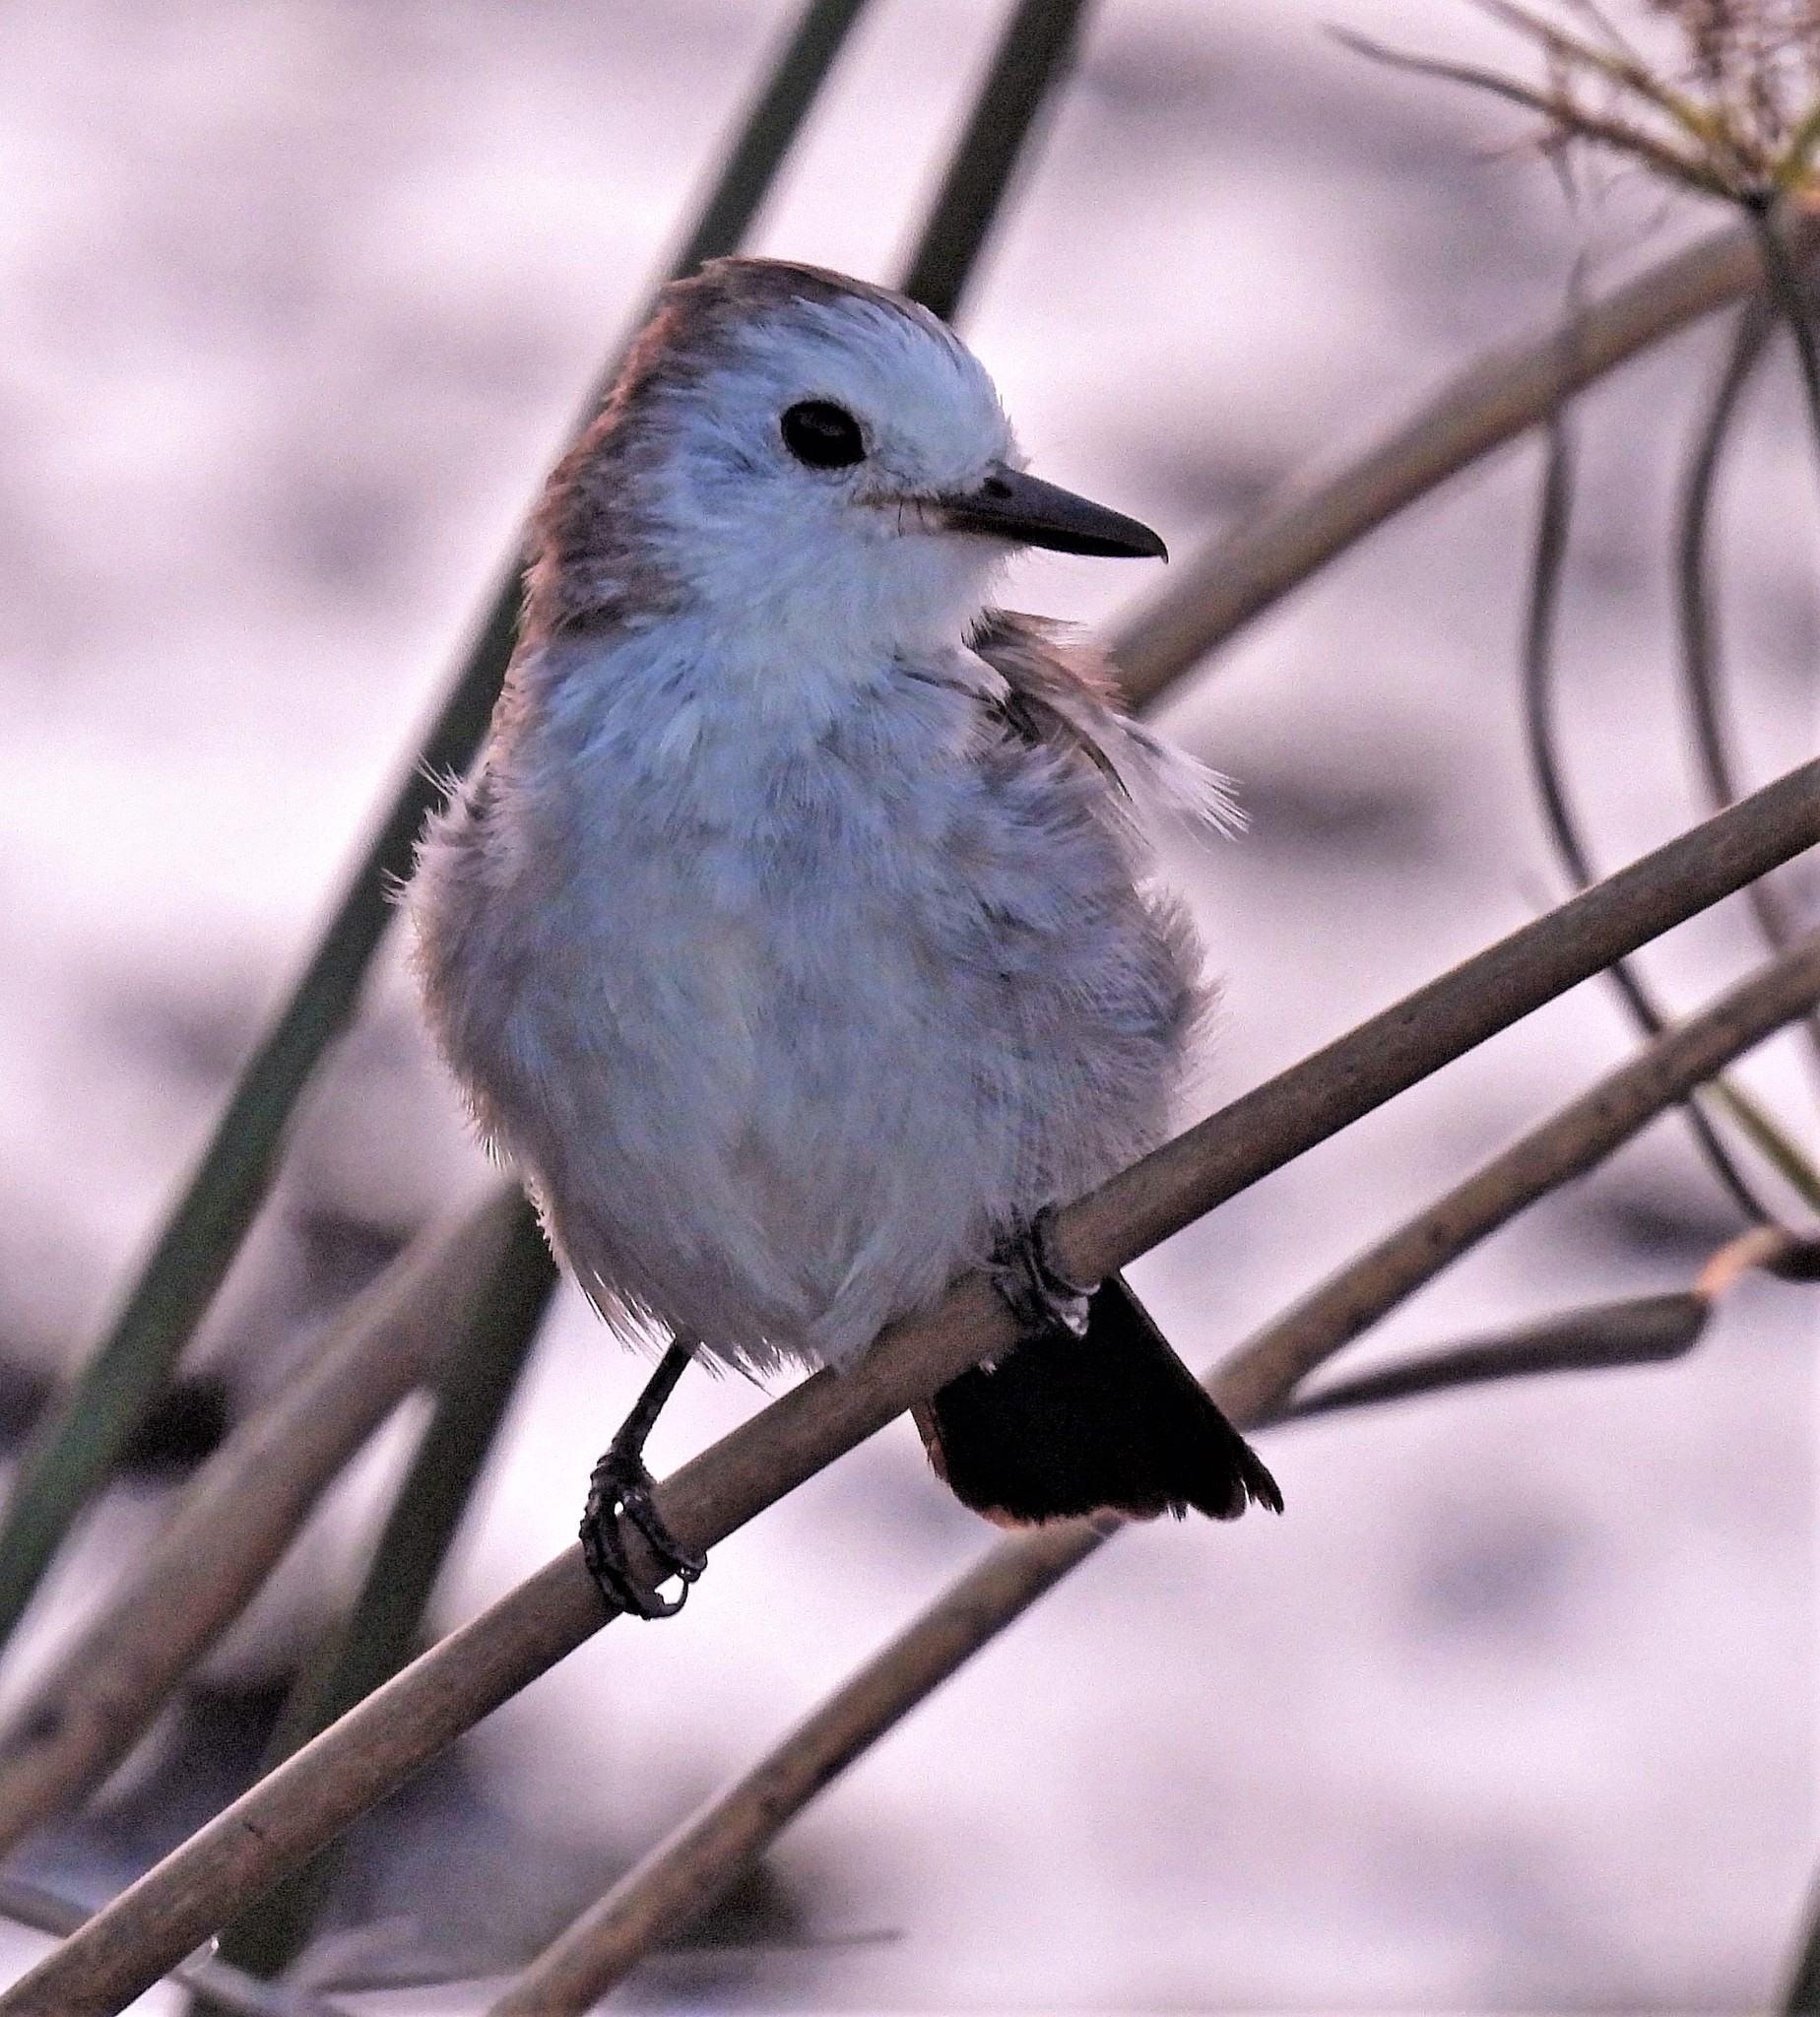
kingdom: Animalia
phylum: Chordata
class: Aves
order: Passeriformes
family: Tyrannidae
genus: Arundinicola
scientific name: Arundinicola leucocephala
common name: White-headed marsh tyrant
